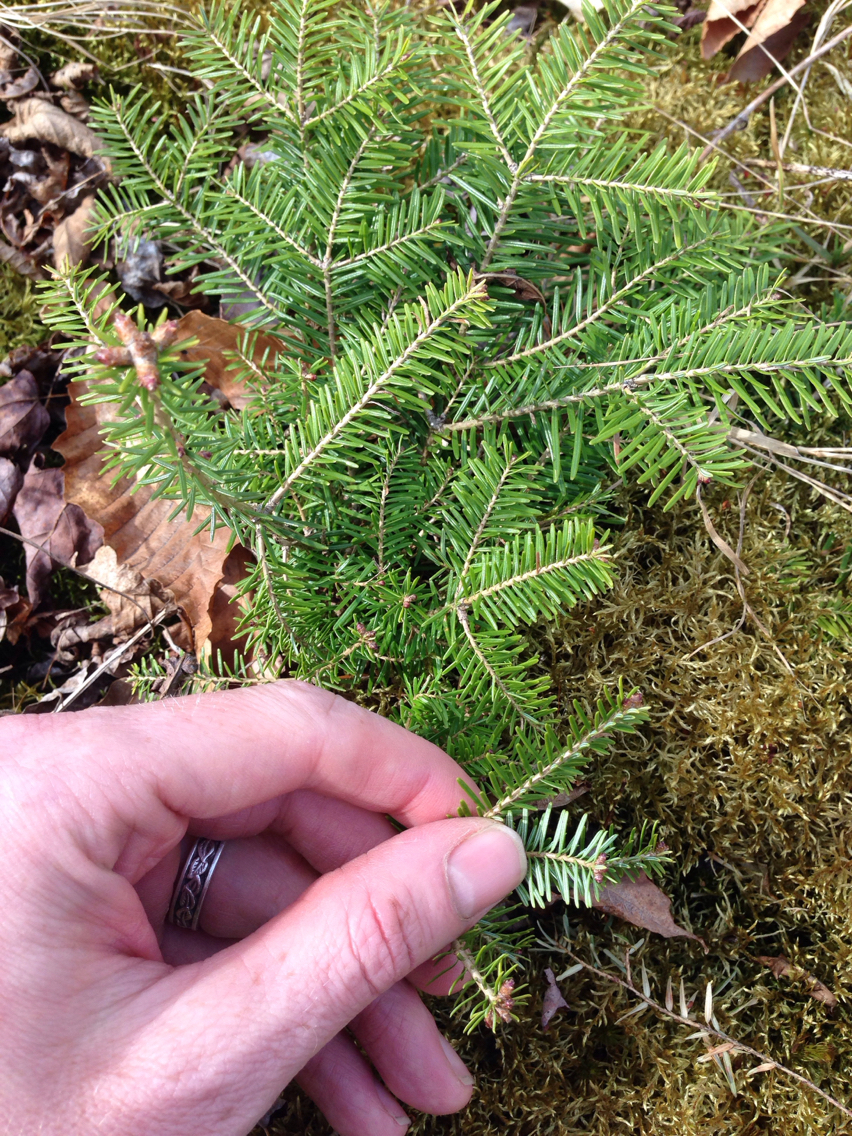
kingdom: Plantae
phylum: Tracheophyta
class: Pinopsida
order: Pinales
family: Pinaceae
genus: Abies
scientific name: Abies balsamea
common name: Balsam fir
